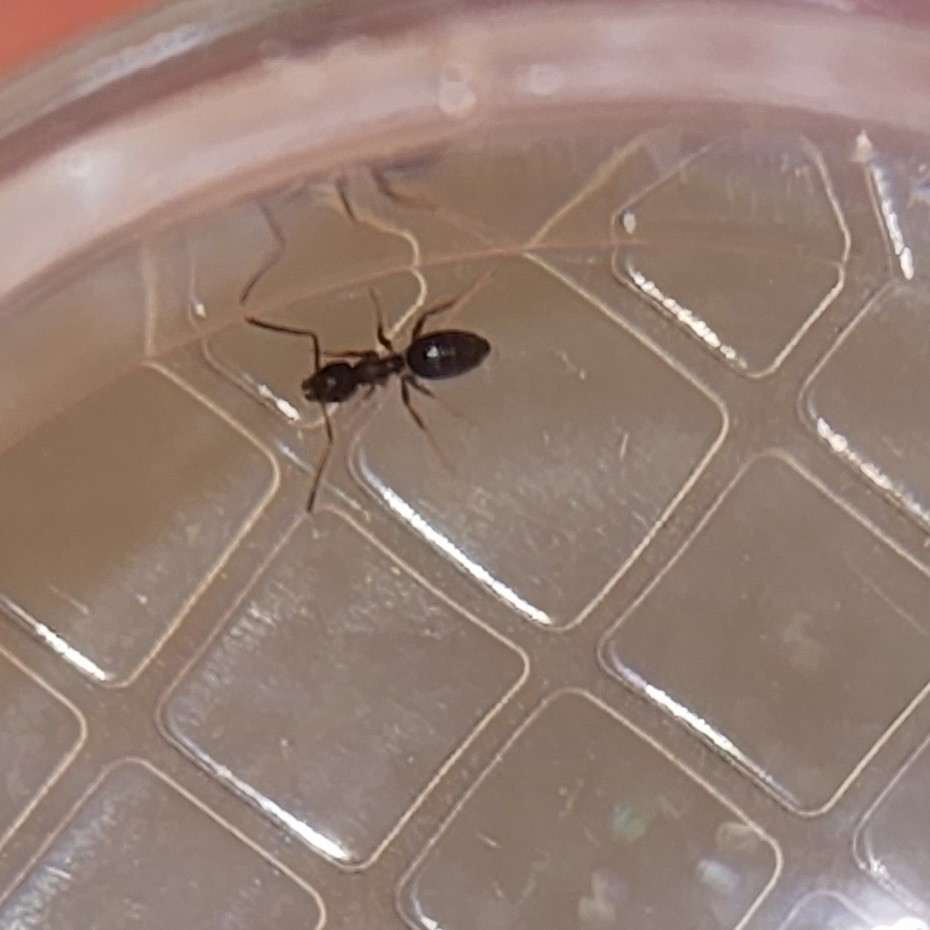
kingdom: Animalia
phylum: Arthropoda
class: Insecta
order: Hymenoptera
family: Formicidae
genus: Tapinoma
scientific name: Tapinoma sessile
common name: Odorous house ant
